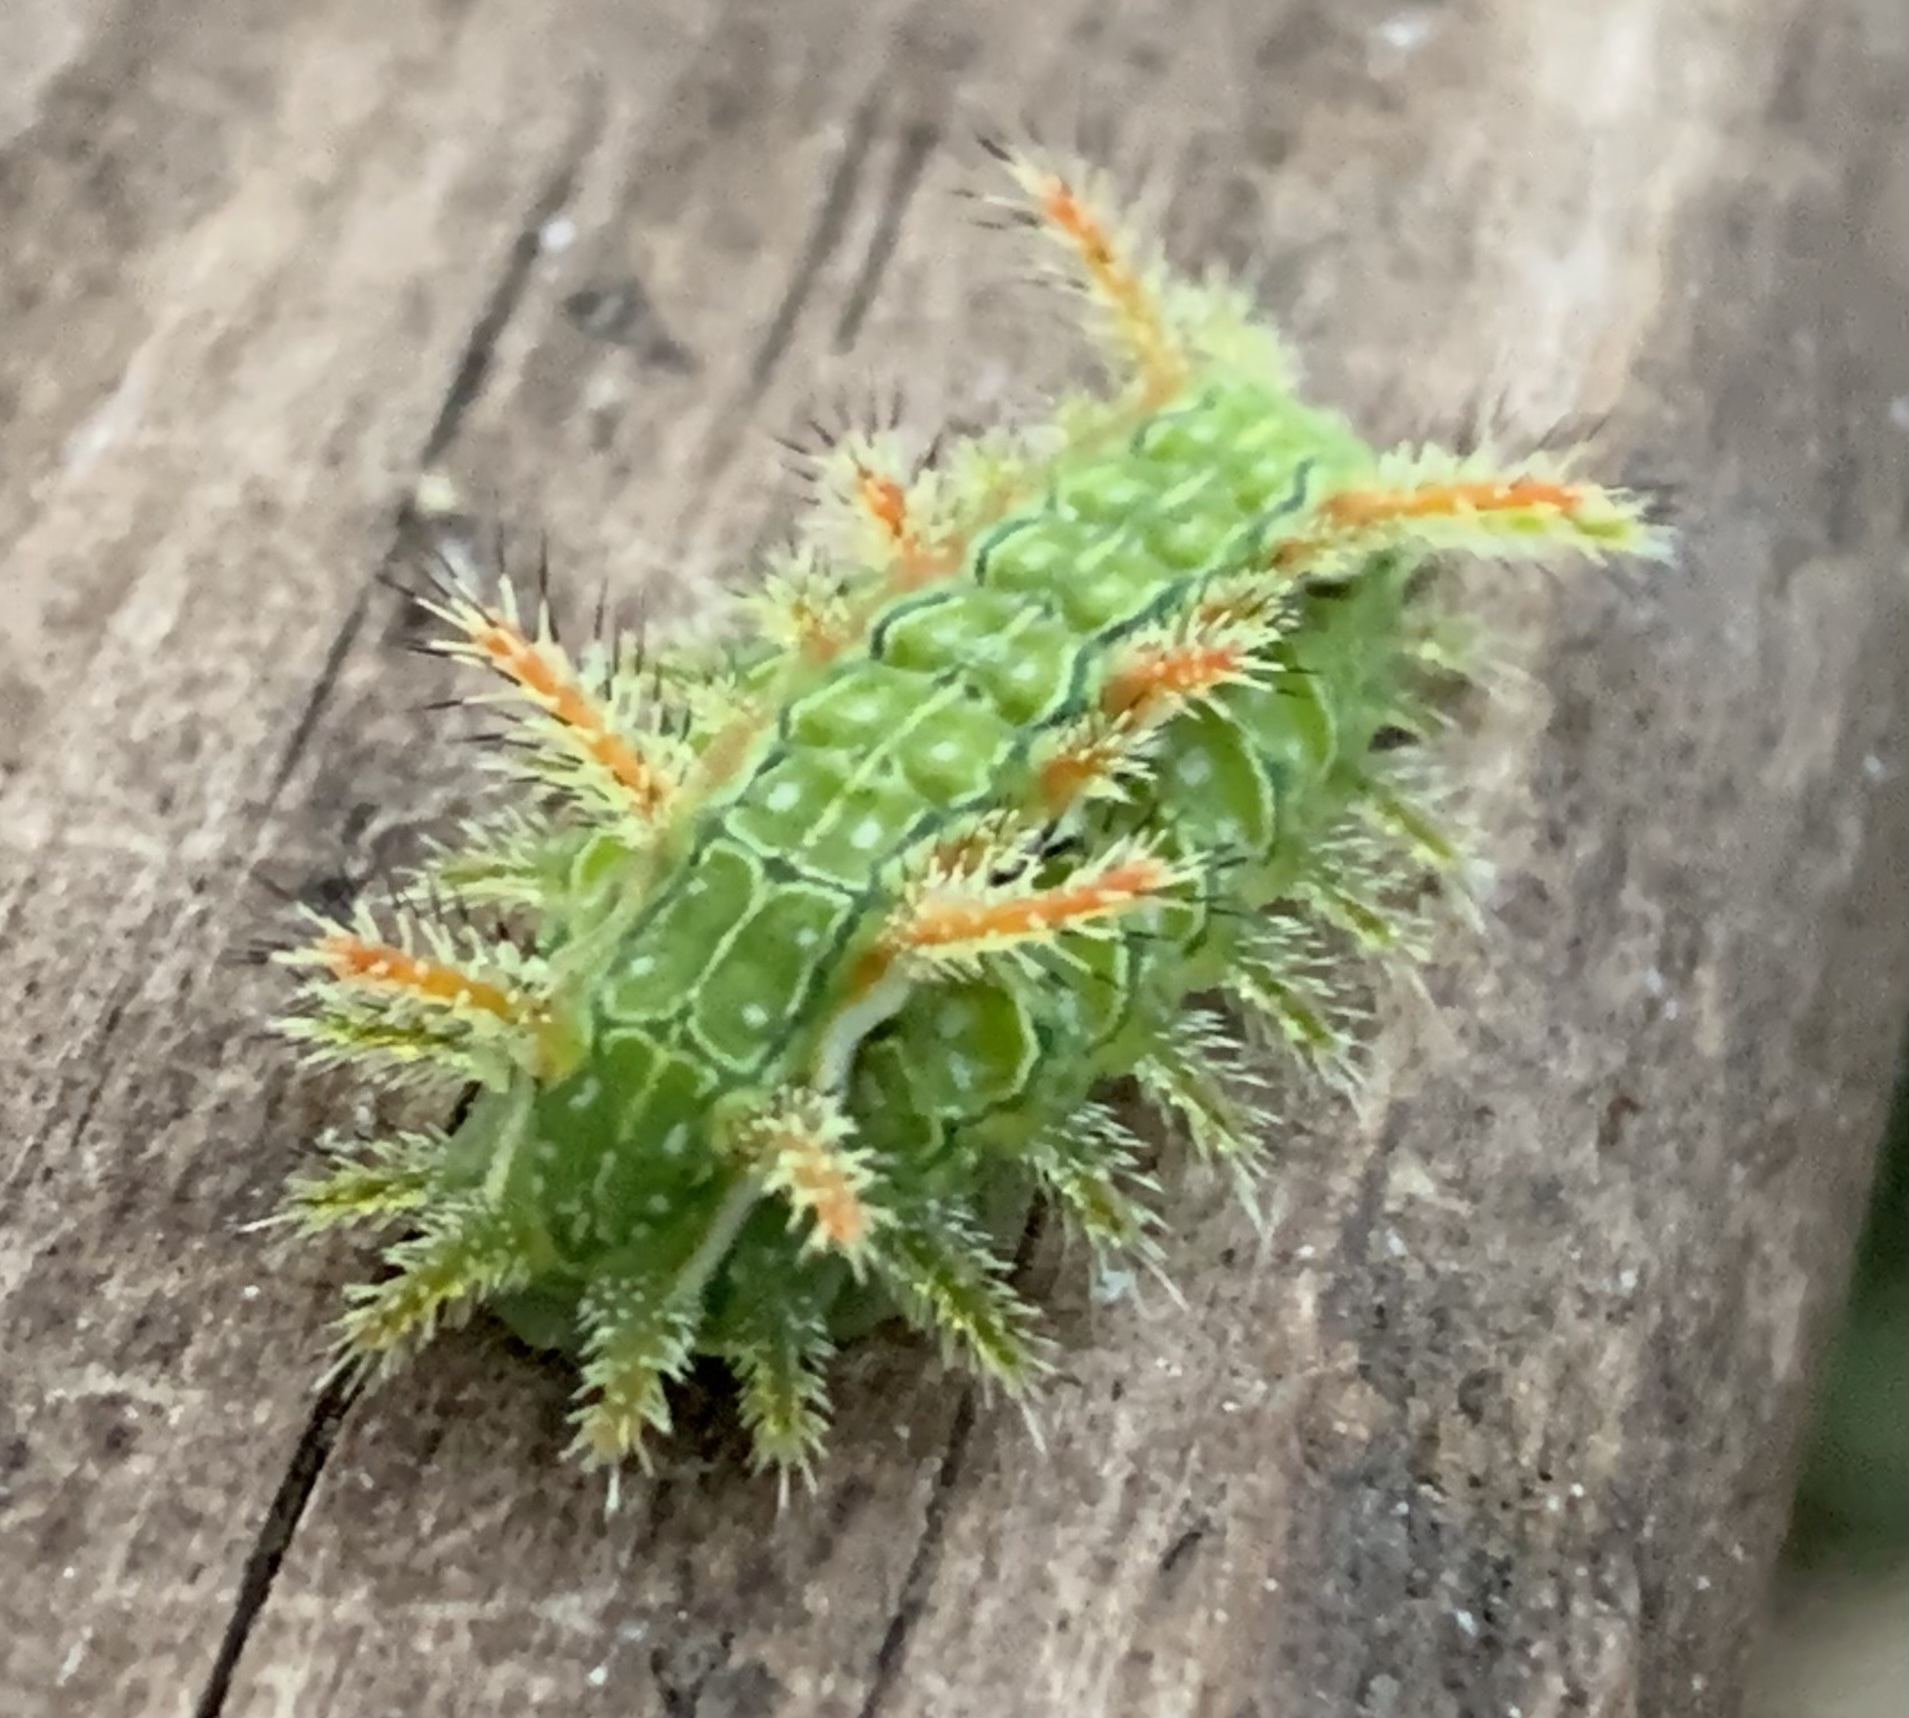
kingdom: Animalia
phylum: Arthropoda
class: Insecta
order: Lepidoptera
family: Limacodidae
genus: Euclea
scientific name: Euclea incisa
